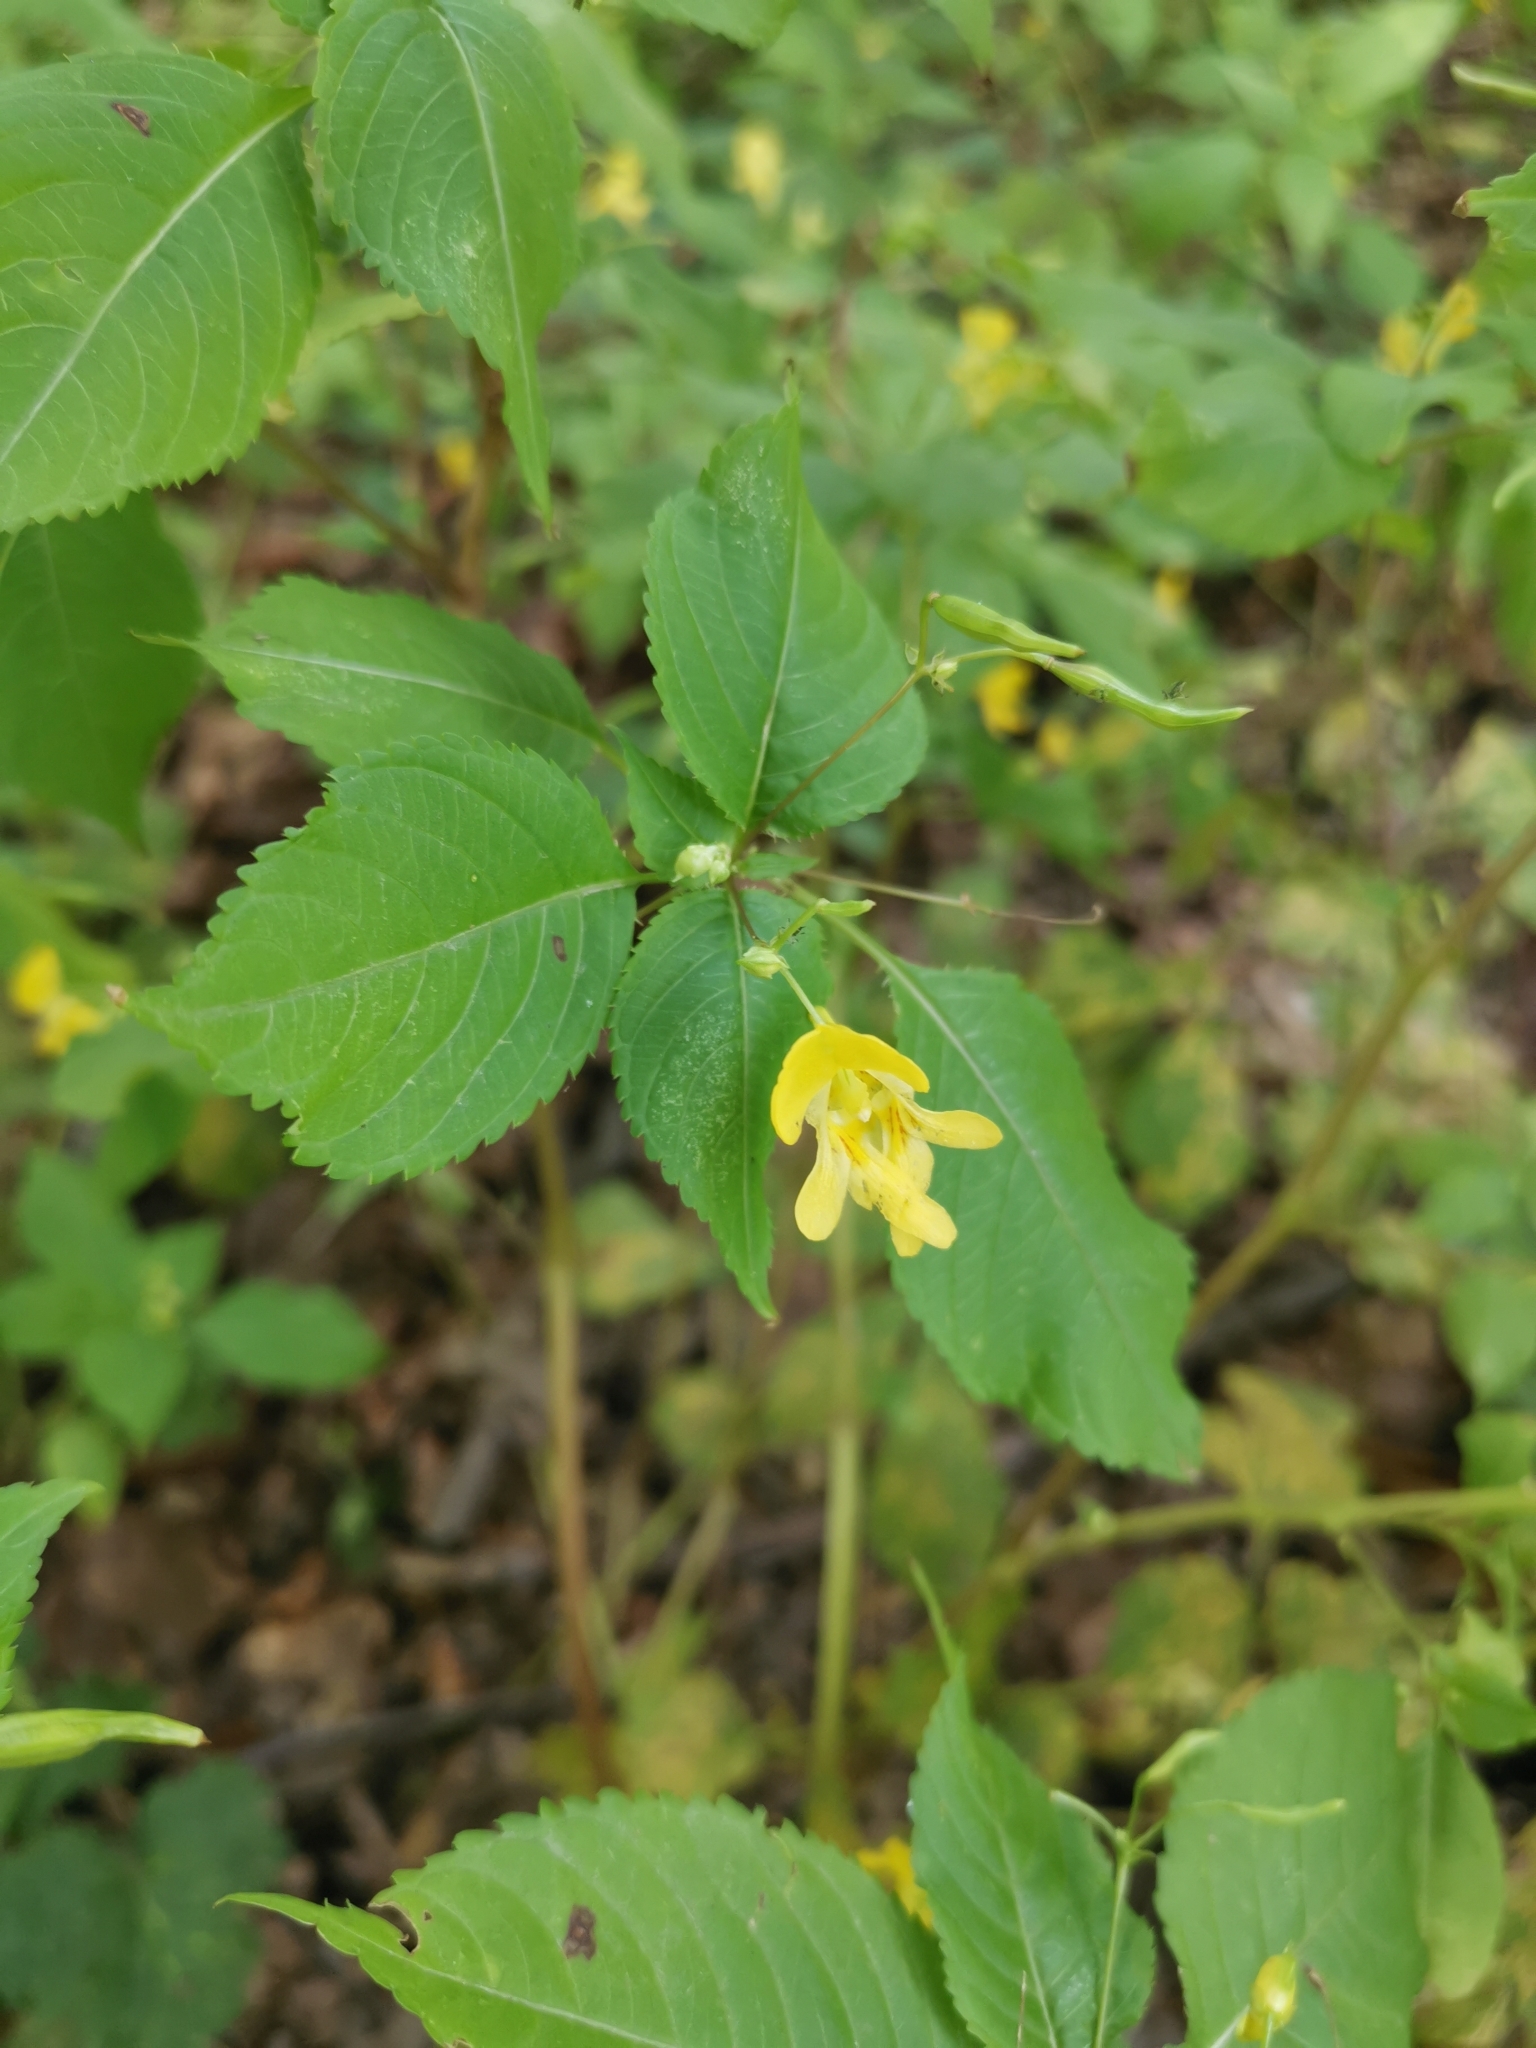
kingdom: Plantae
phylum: Tracheophyta
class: Magnoliopsida
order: Ericales
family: Balsaminaceae
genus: Impatiens
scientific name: Impatiens edgeworthii
